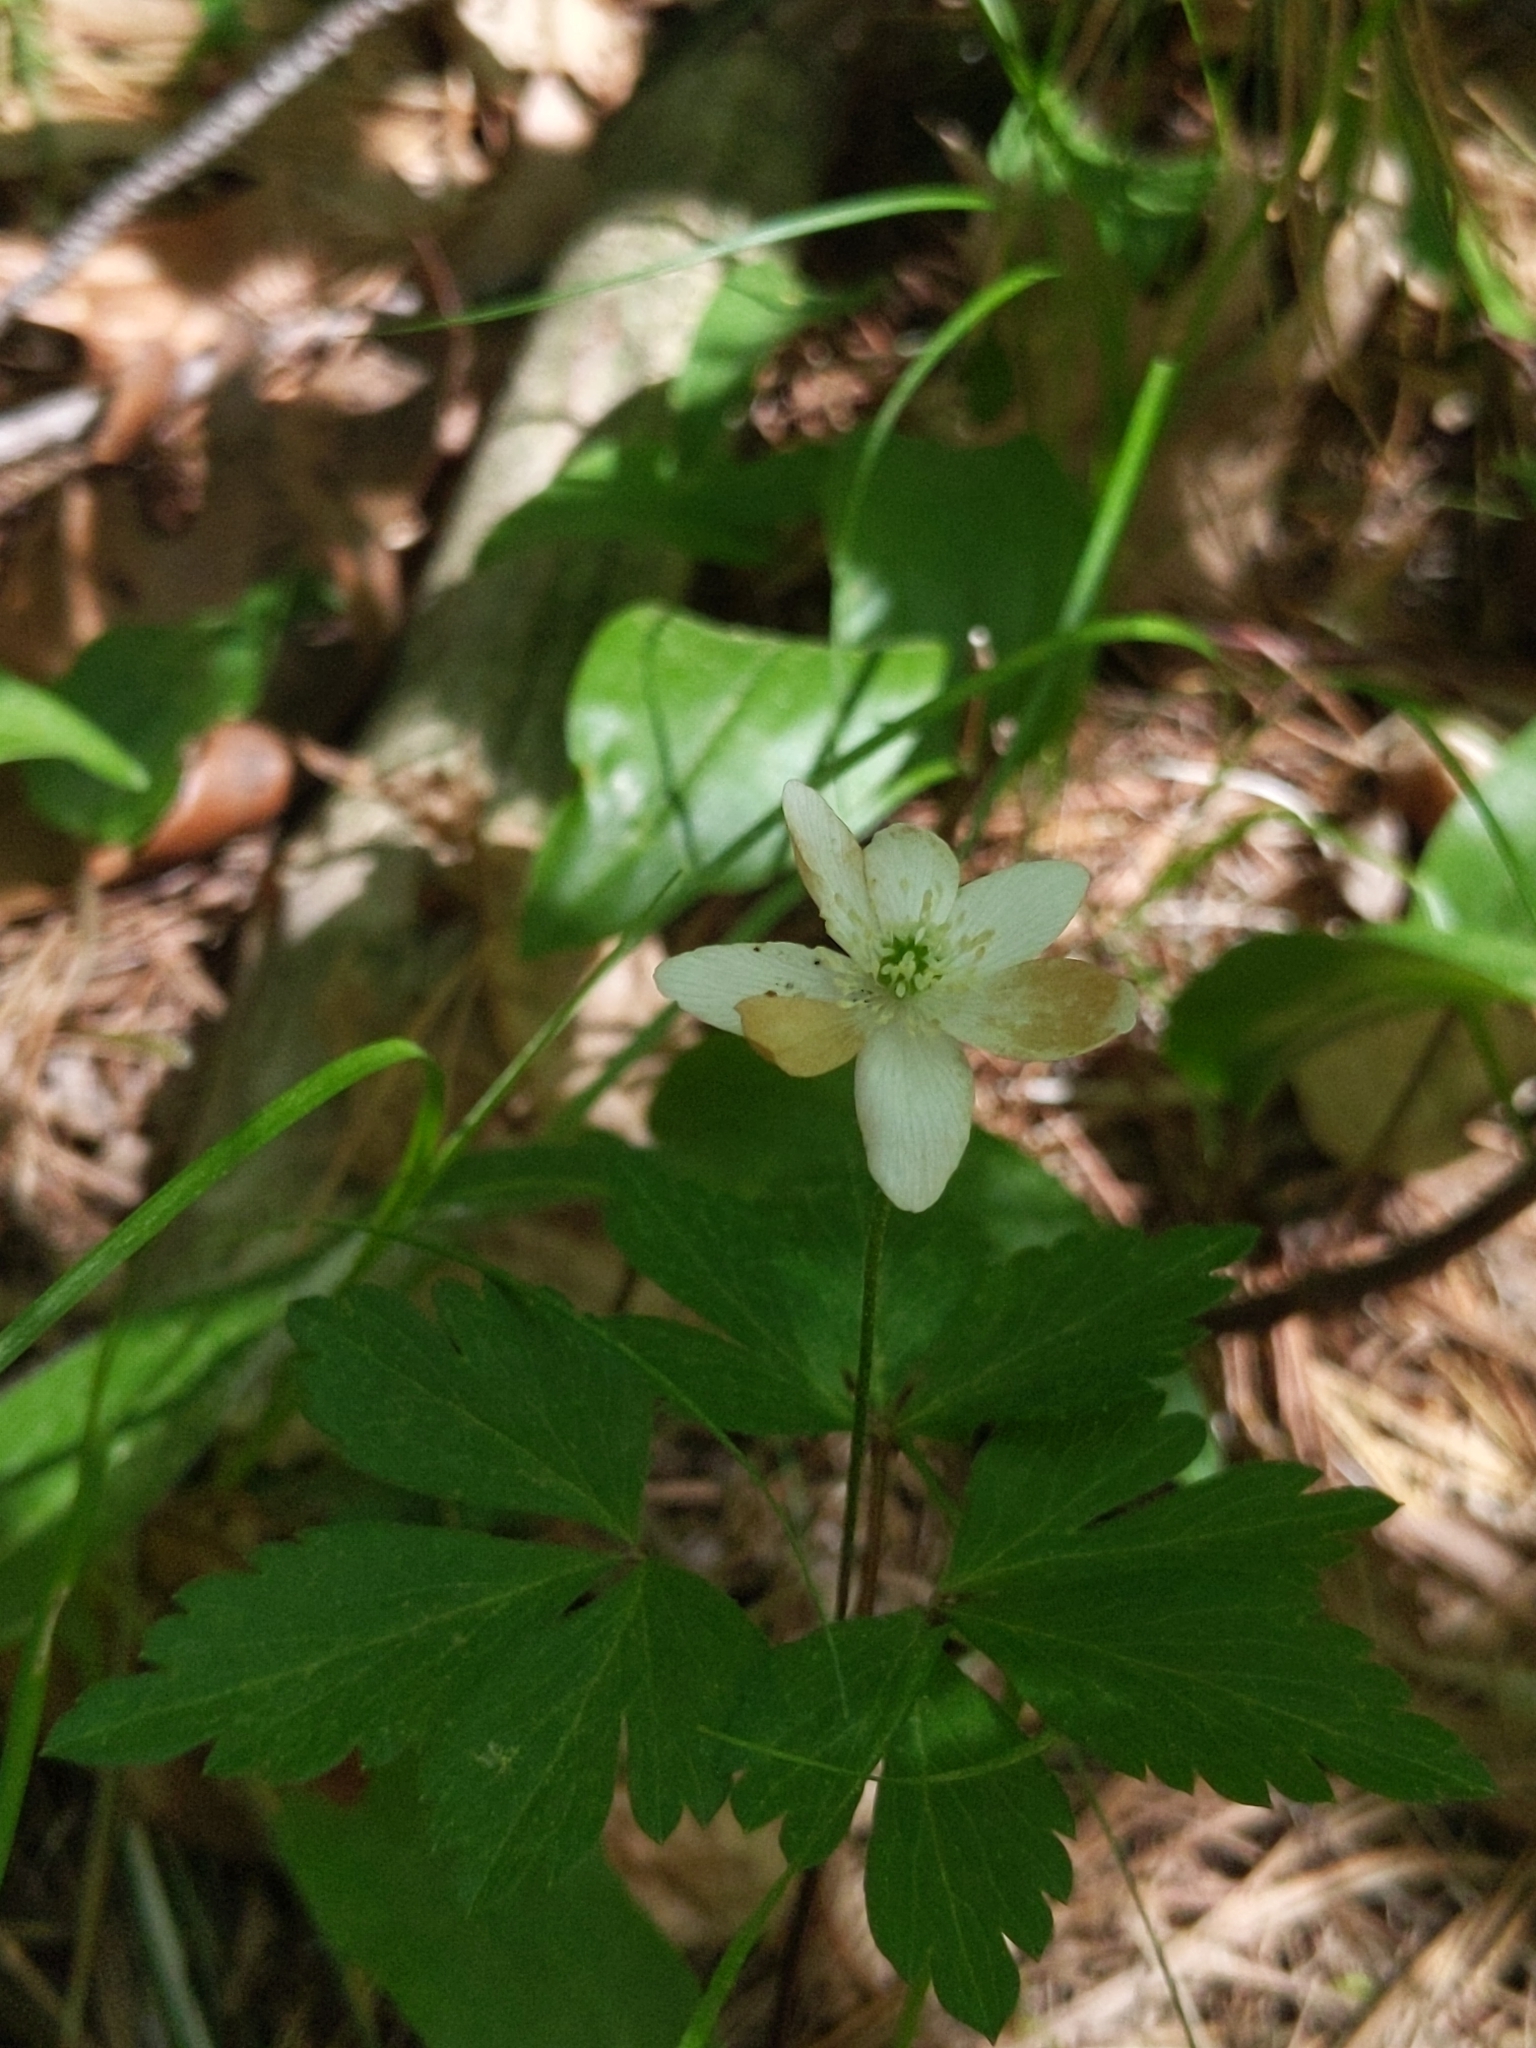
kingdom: Plantae
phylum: Tracheophyta
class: Magnoliopsida
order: Ranunculales
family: Ranunculaceae
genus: Anemone
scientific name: Anemone quinquefolia
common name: Wood anemone
